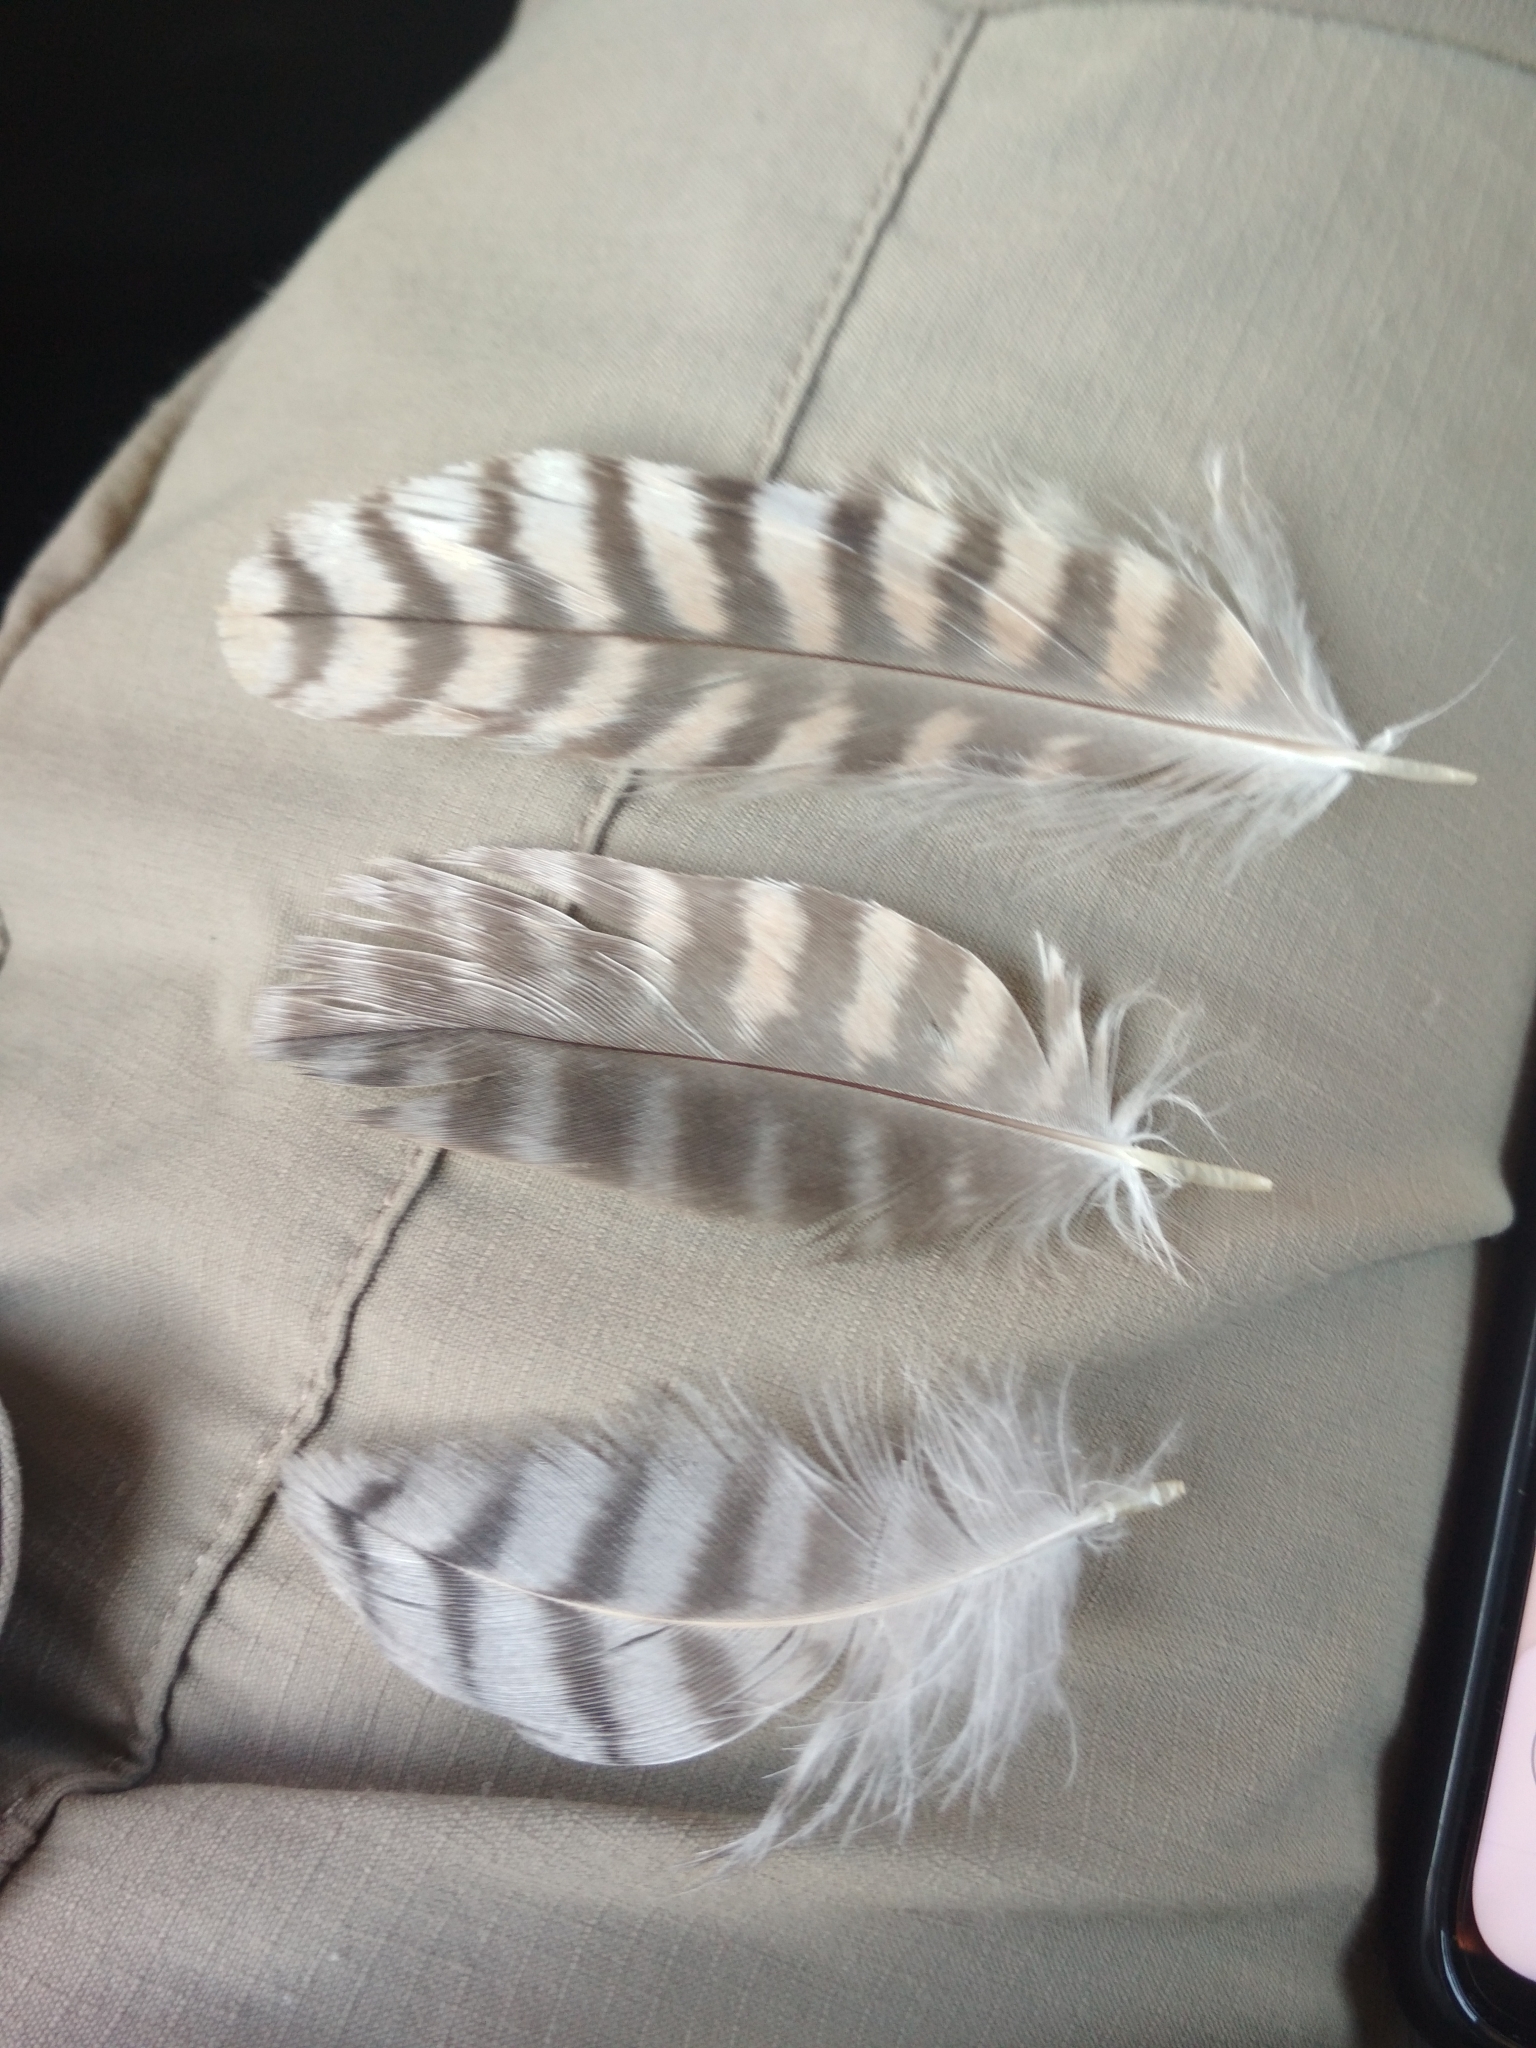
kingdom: Animalia
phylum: Chordata
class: Aves
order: Falconiformes
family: Falconidae
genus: Falco
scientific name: Falco peregrinus
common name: Peregrine falcon
